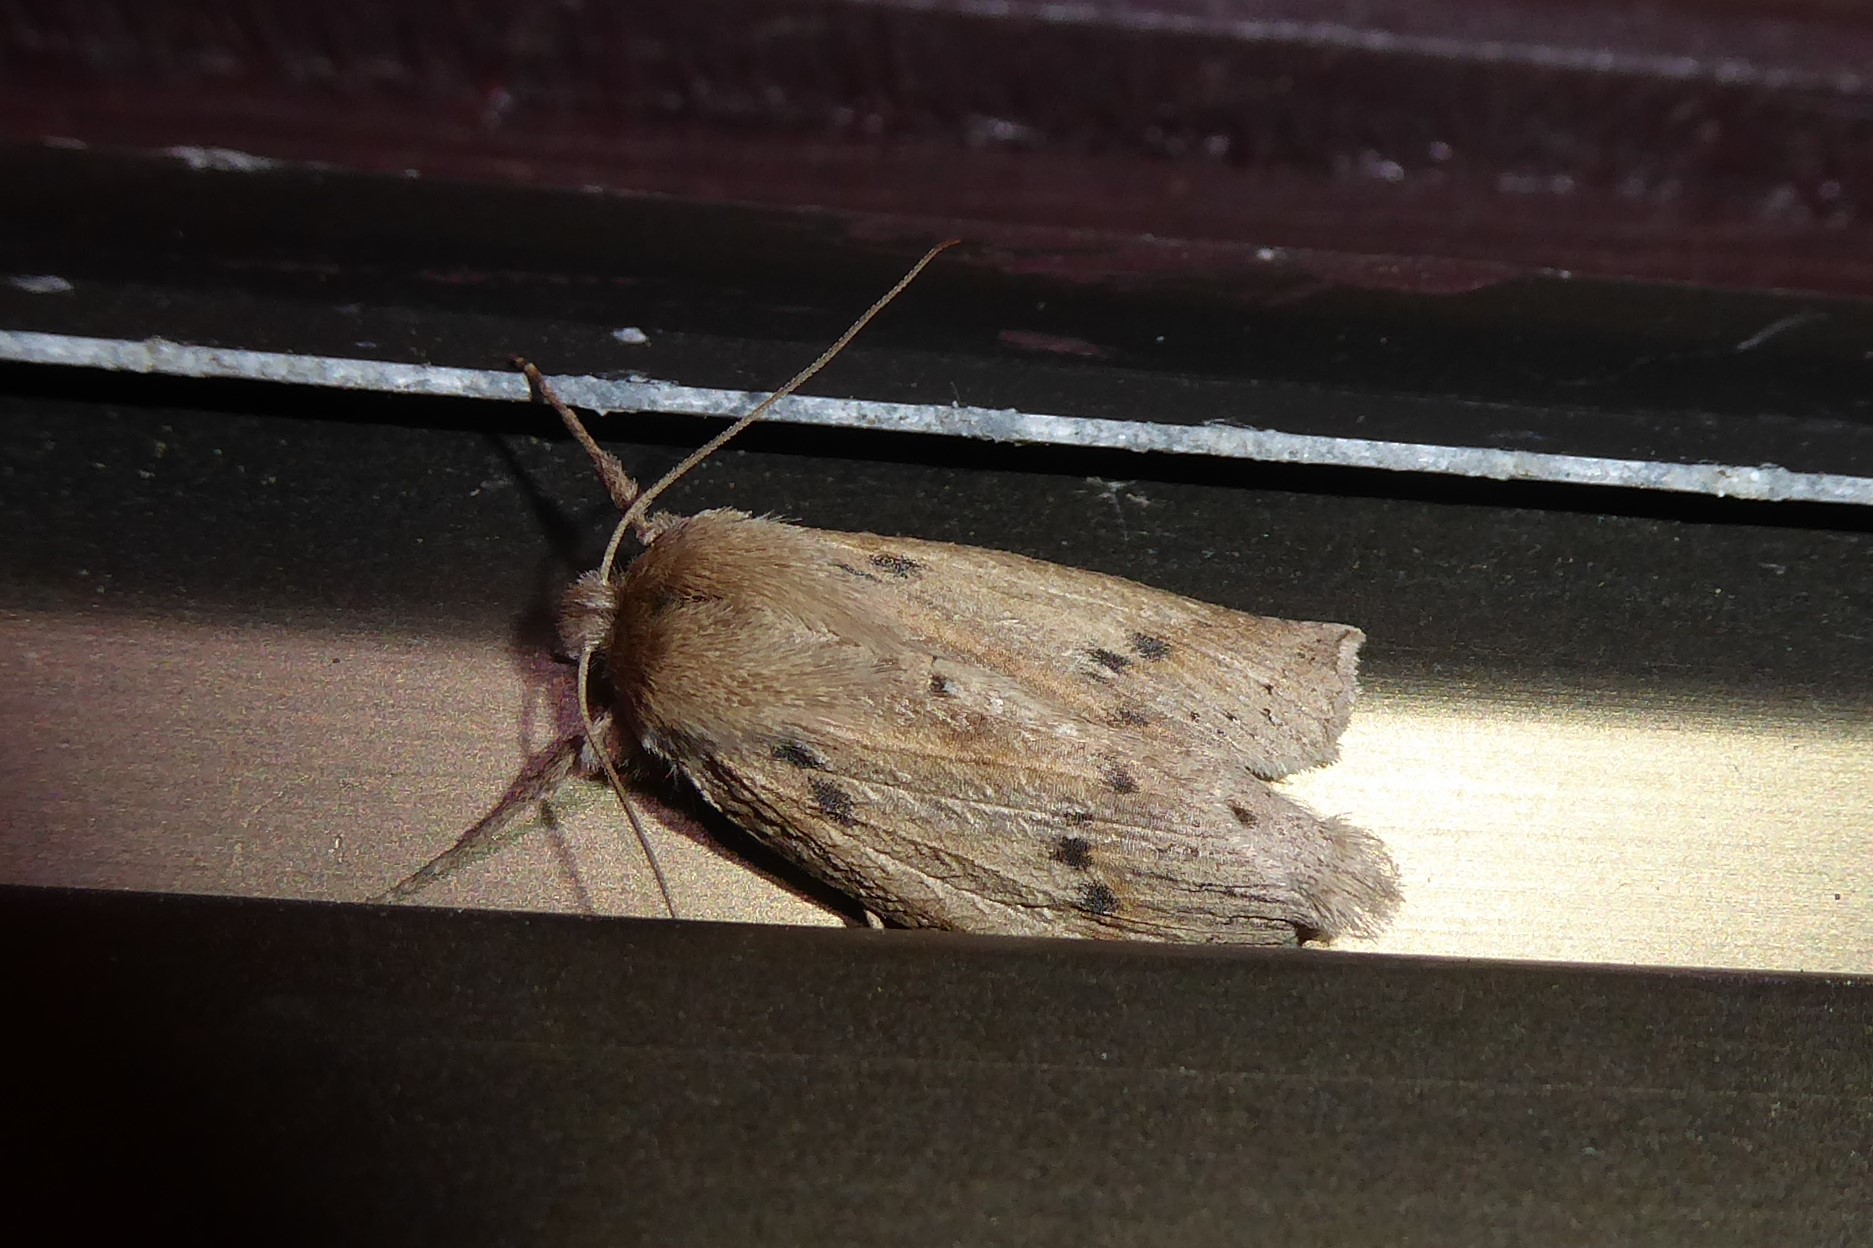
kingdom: Animalia
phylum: Arthropoda
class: Insecta
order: Lepidoptera
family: Geometridae
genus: Declana
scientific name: Declana leptomera
